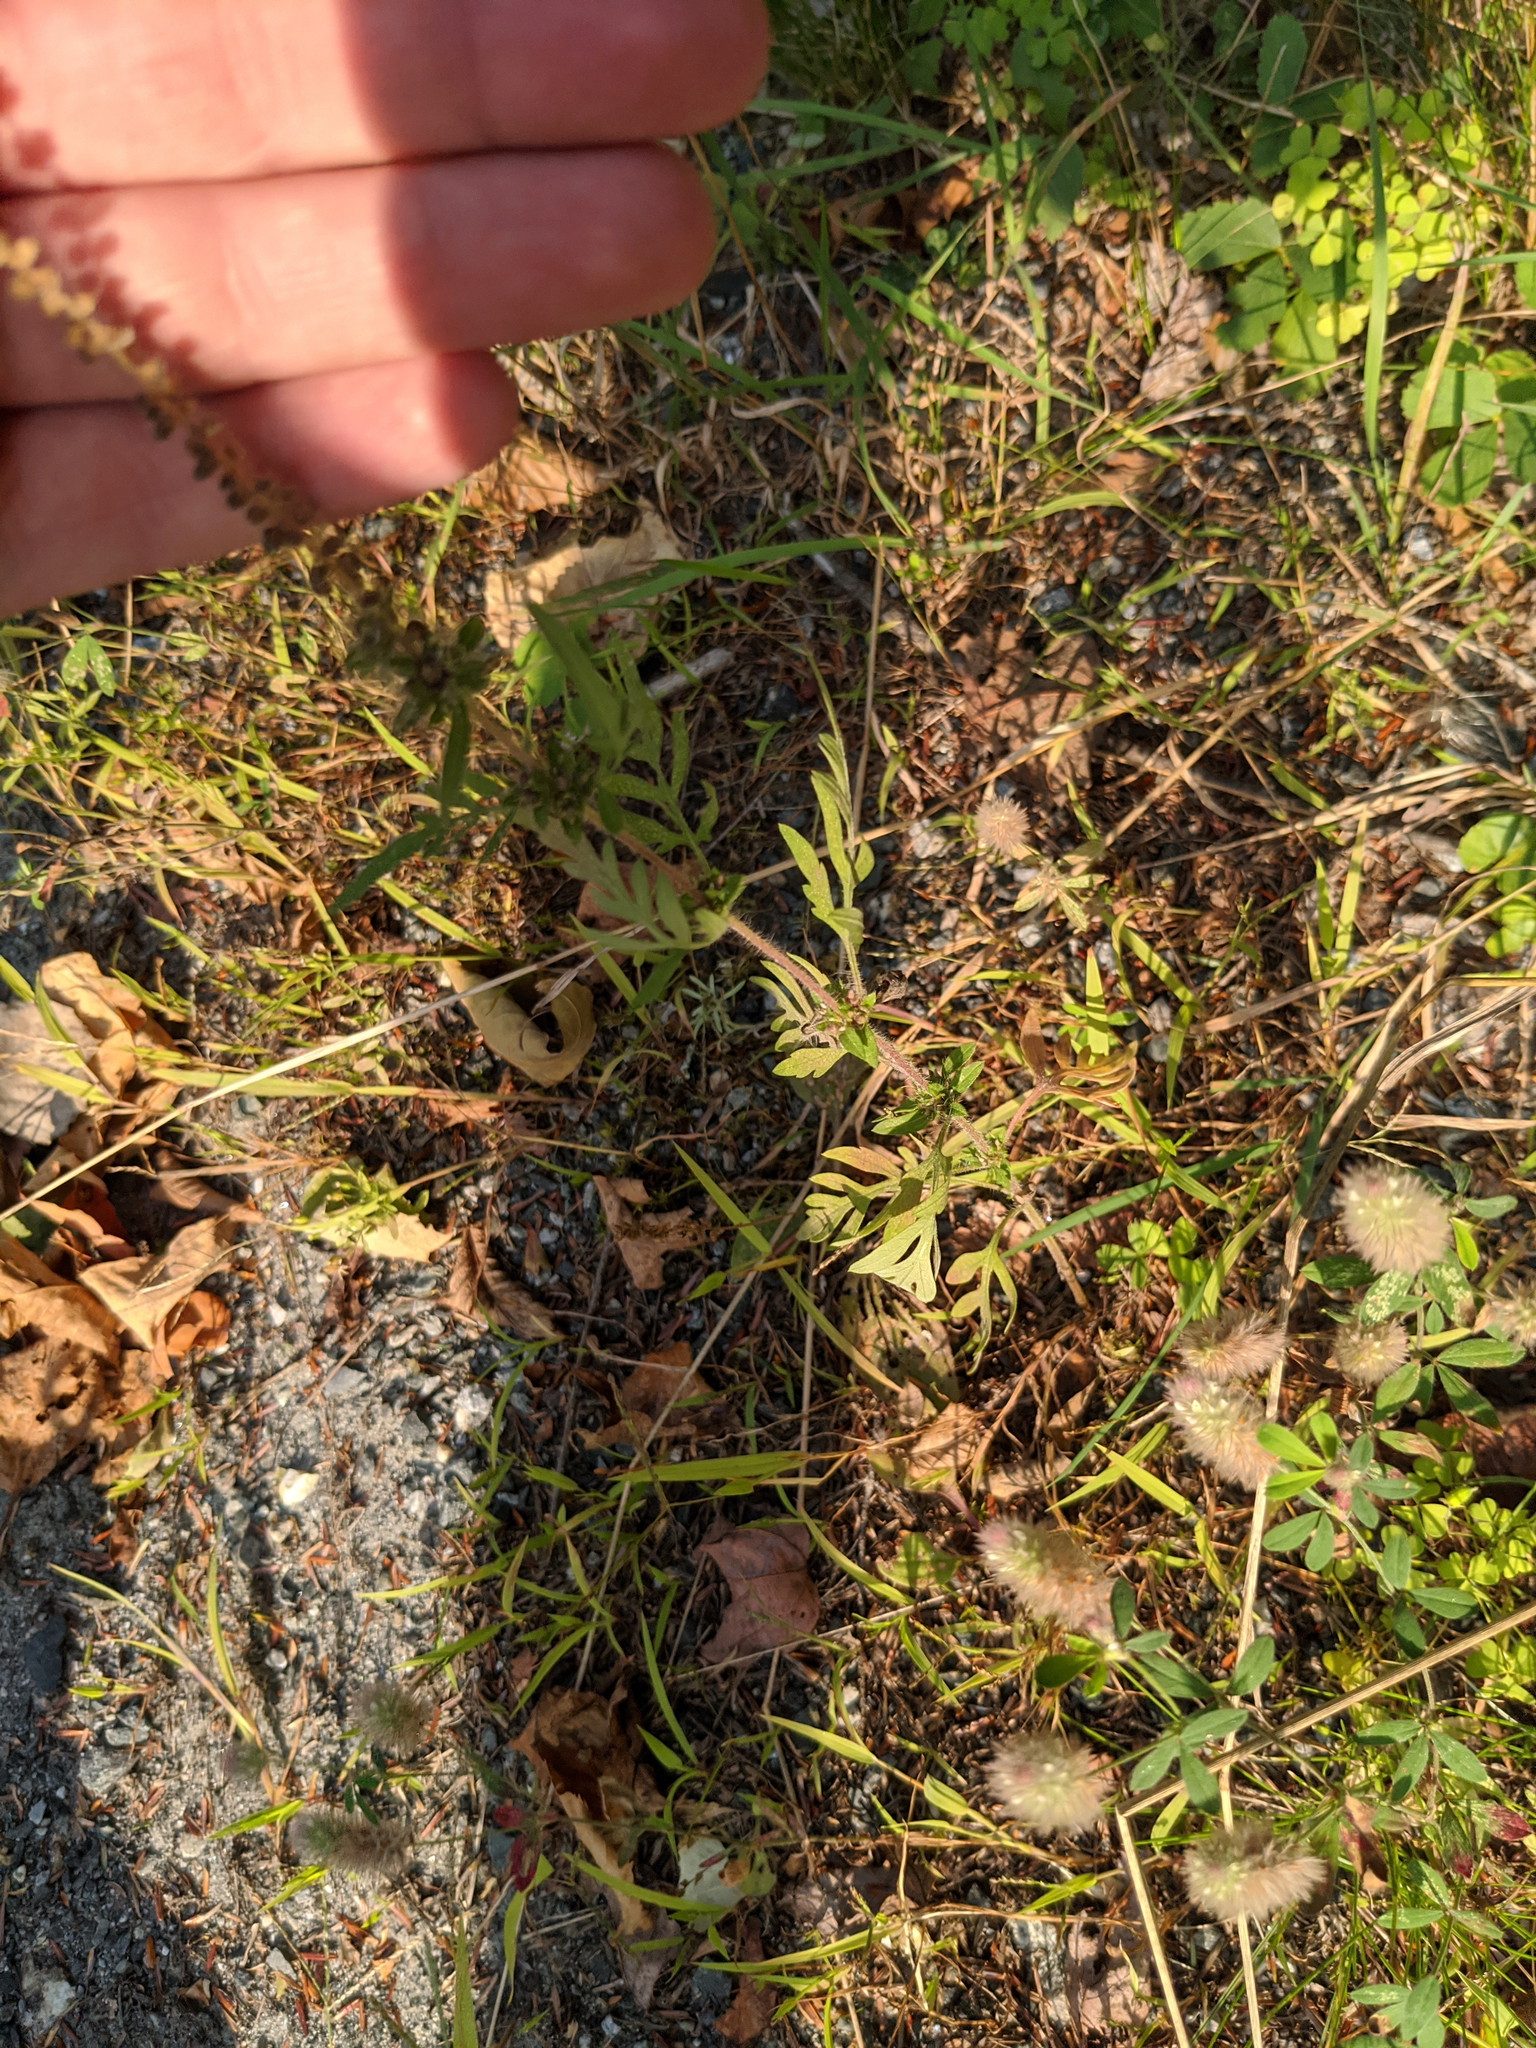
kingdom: Plantae
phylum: Tracheophyta
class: Magnoliopsida
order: Asterales
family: Asteraceae
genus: Ambrosia
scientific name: Ambrosia artemisiifolia
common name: Annual ragweed
